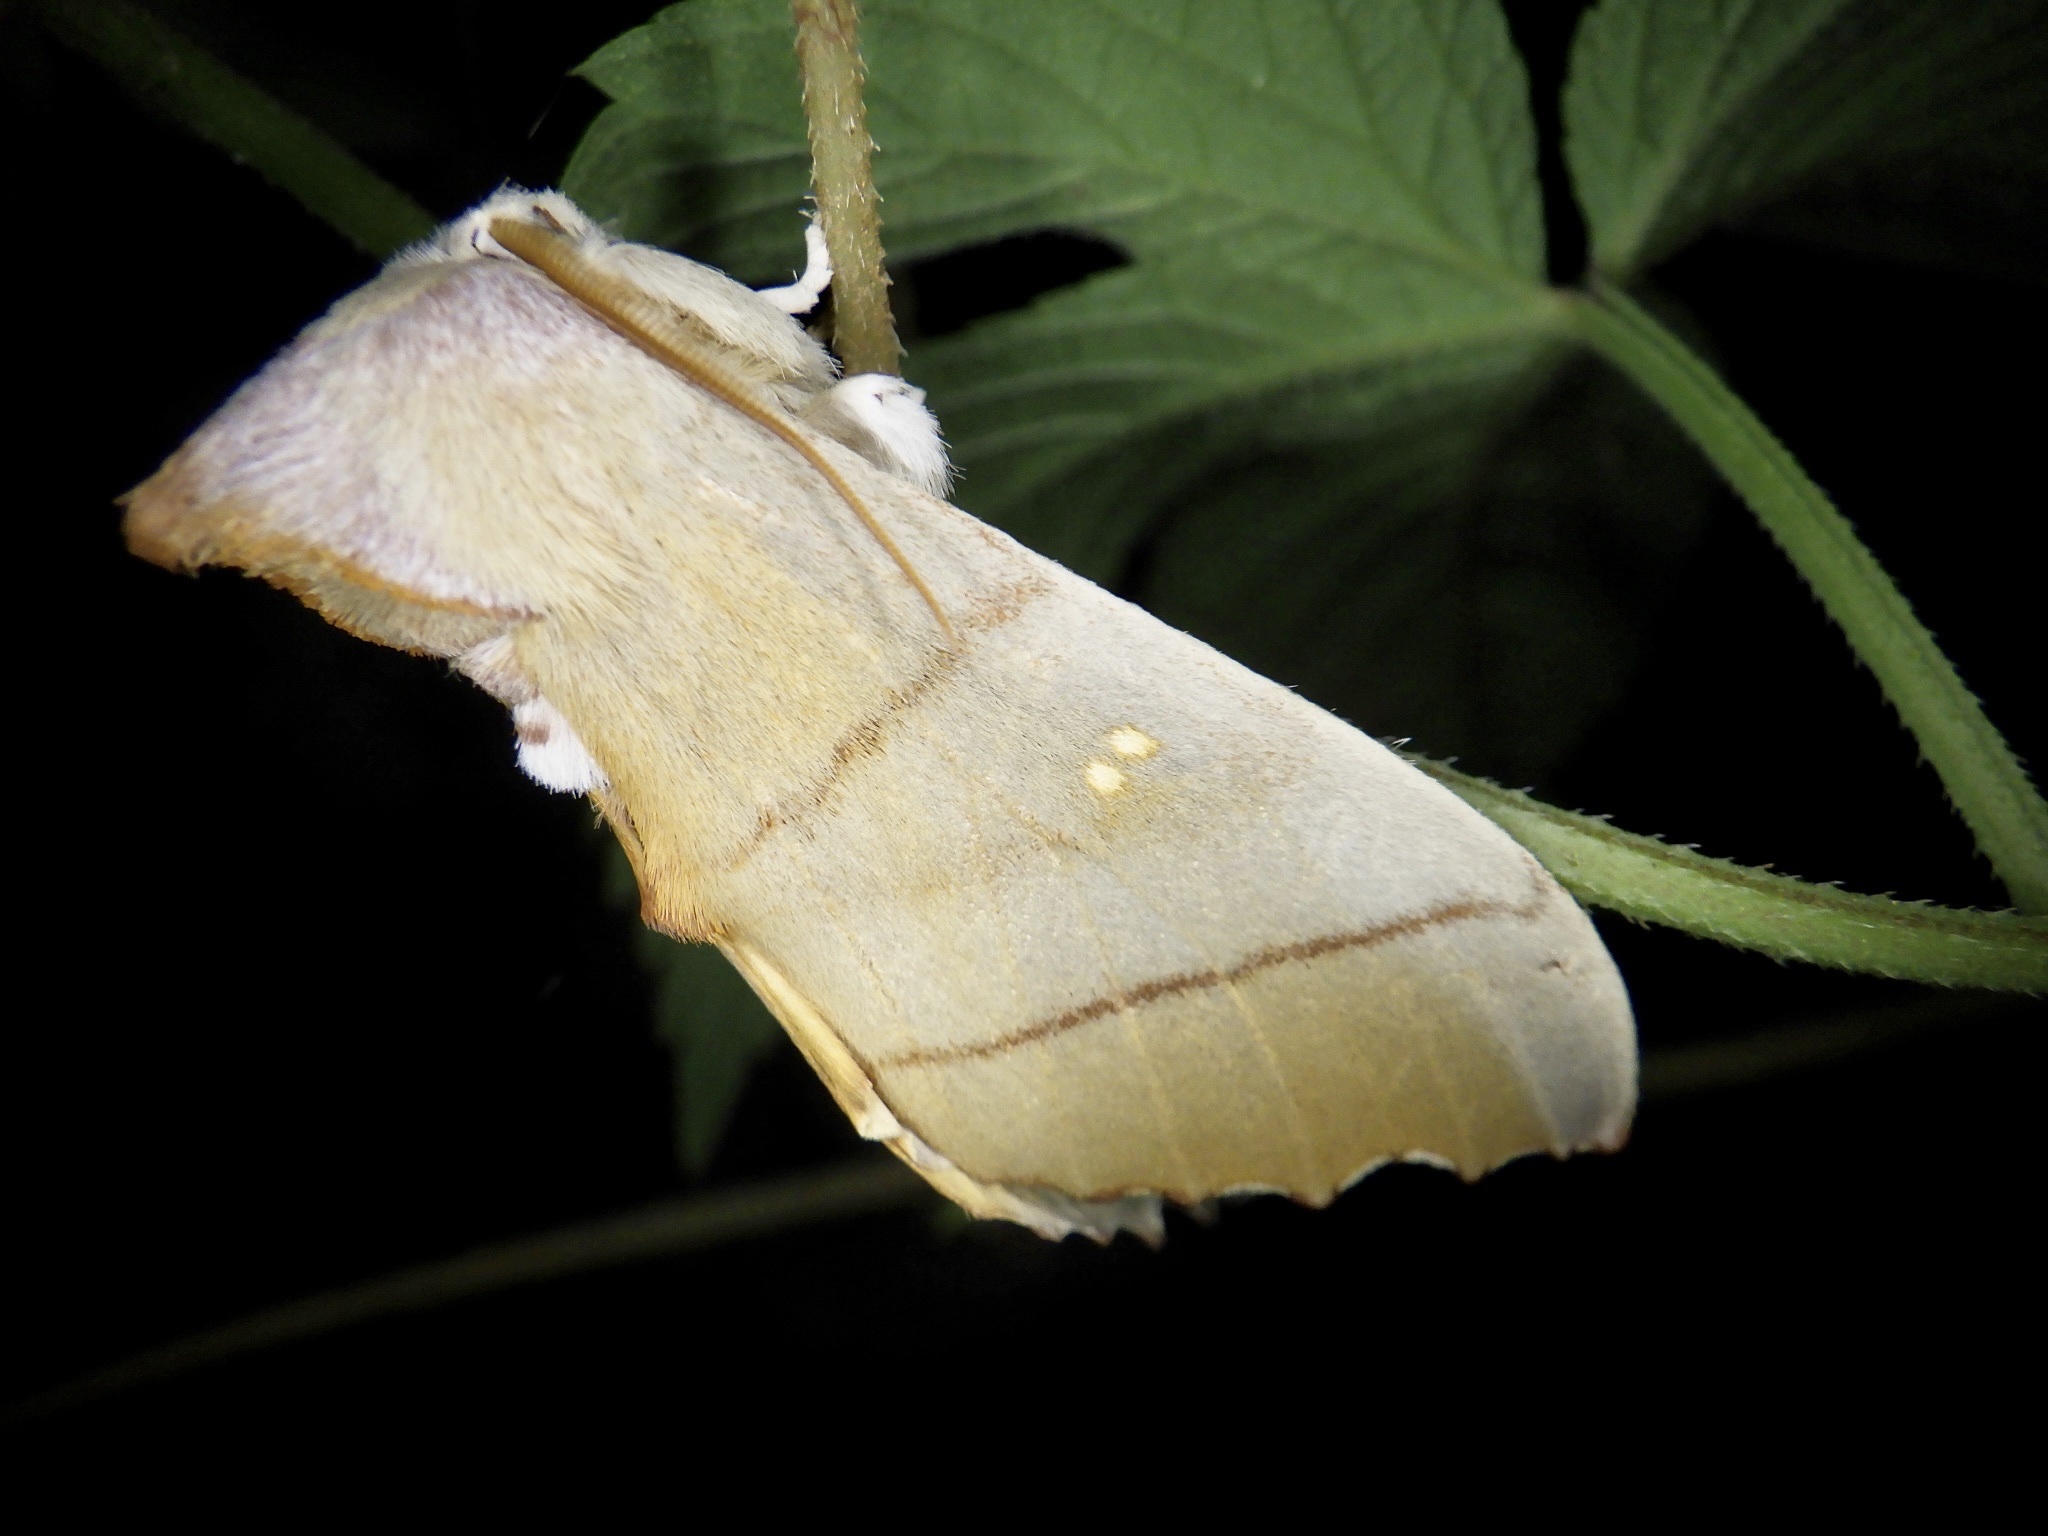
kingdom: Animalia
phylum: Arthropoda
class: Insecta
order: Lepidoptera
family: Notodontidae
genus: Euhampsonia
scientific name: Euhampsonia cristata
